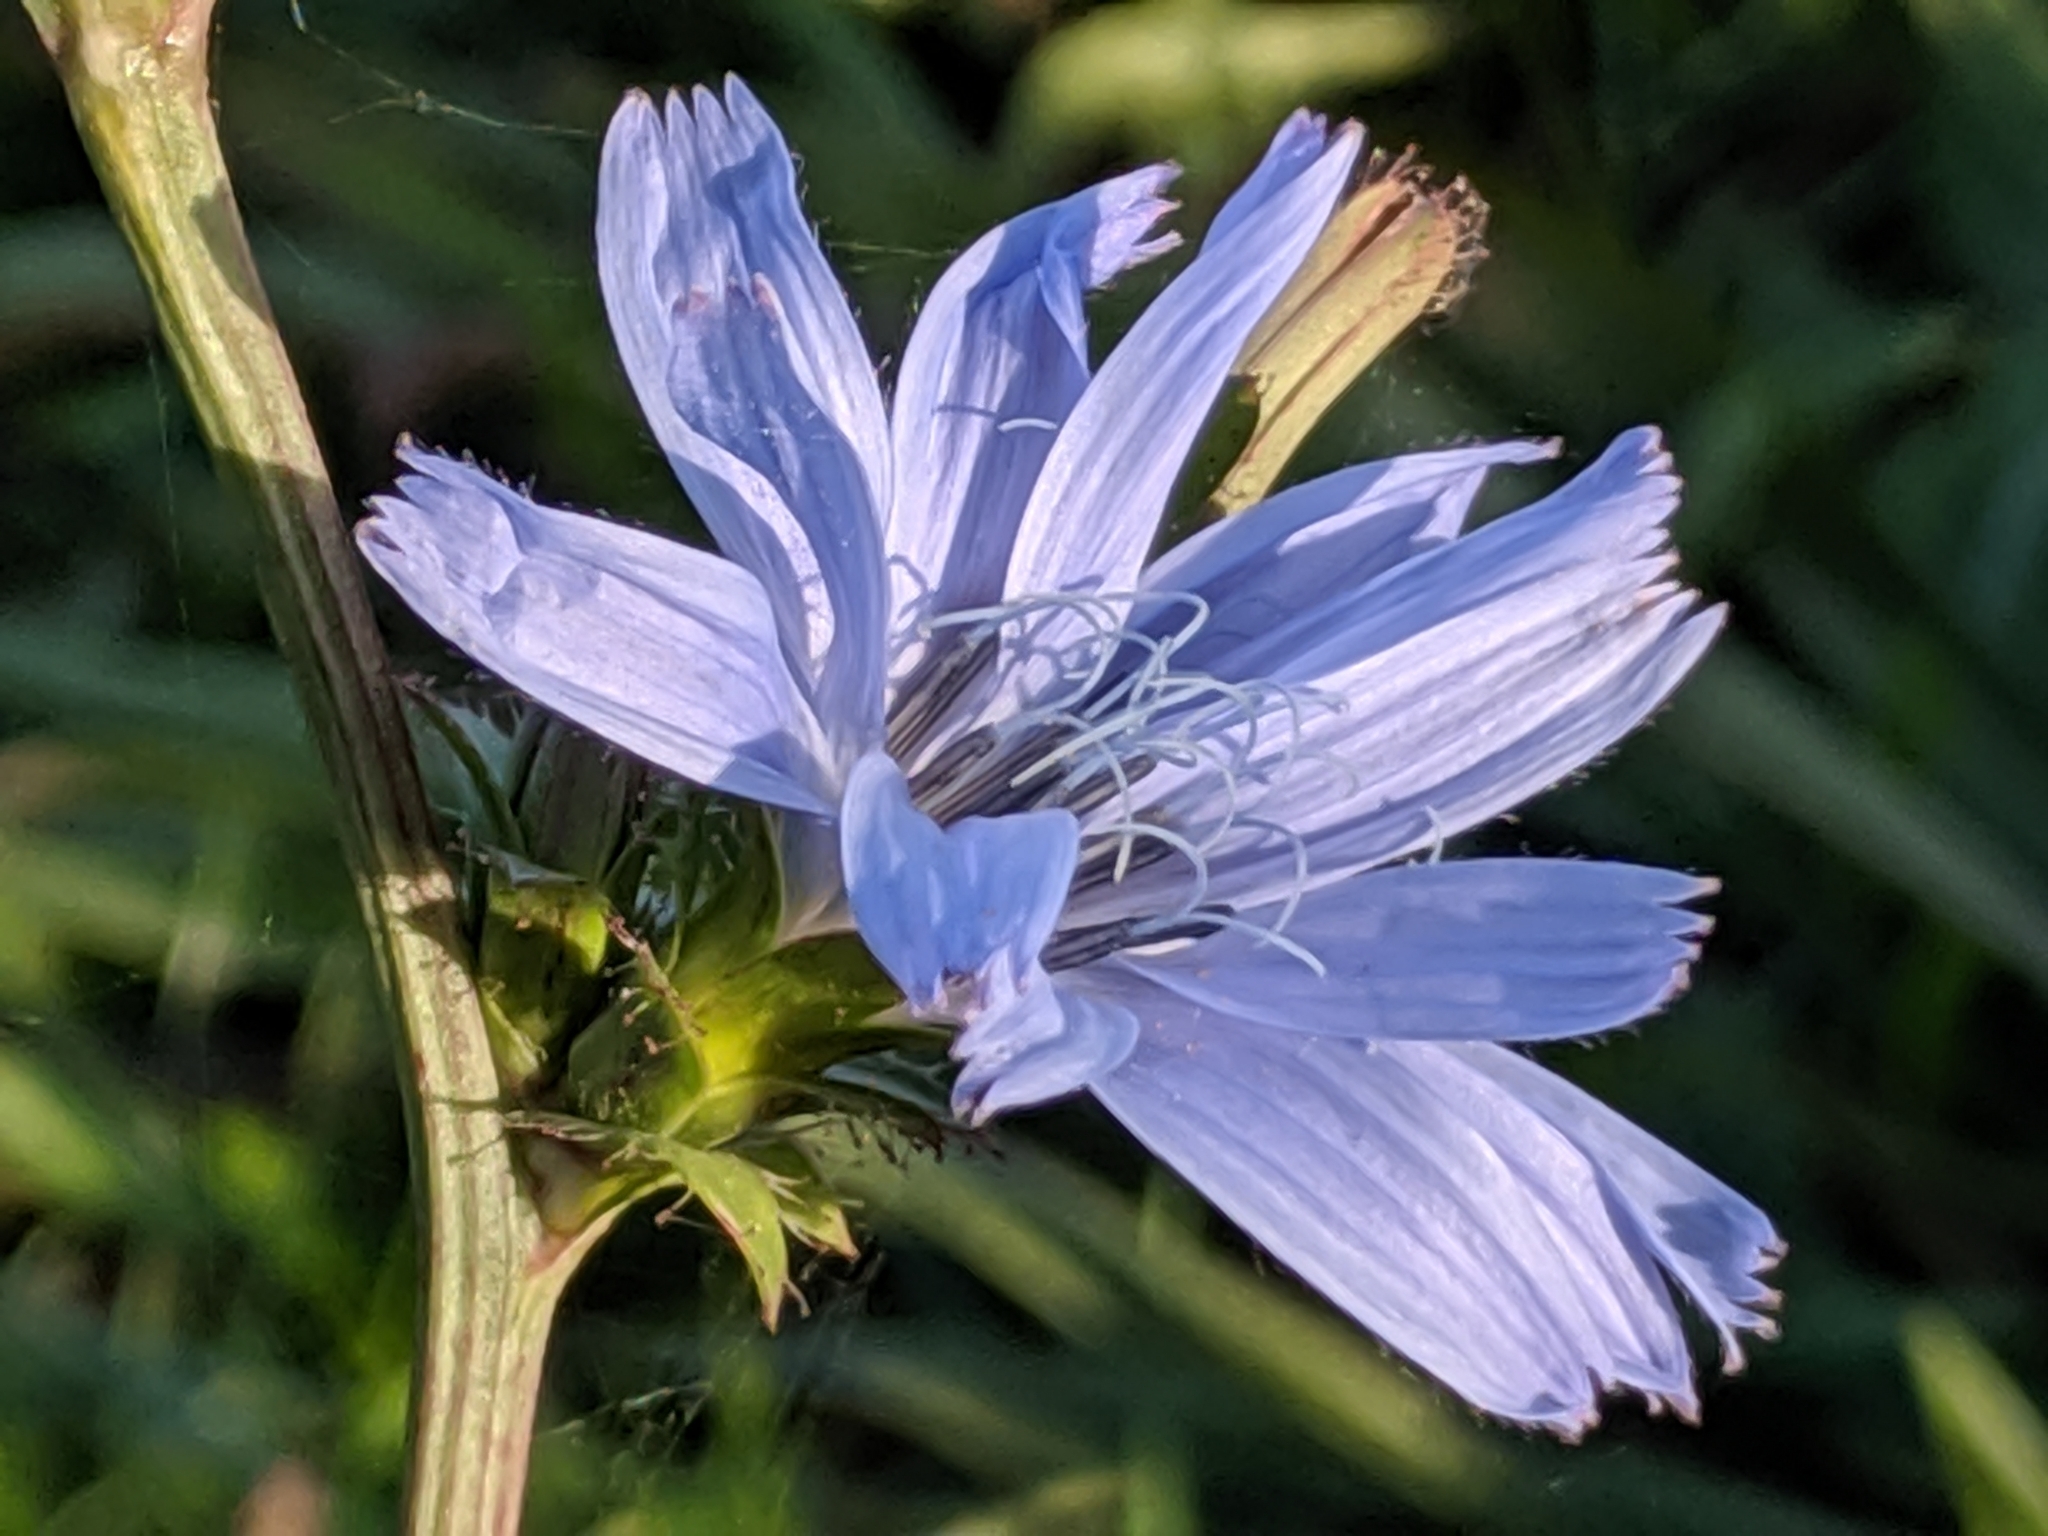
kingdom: Plantae
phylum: Tracheophyta
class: Magnoliopsida
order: Asterales
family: Asteraceae
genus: Cichorium
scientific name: Cichorium intybus
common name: Chicory
